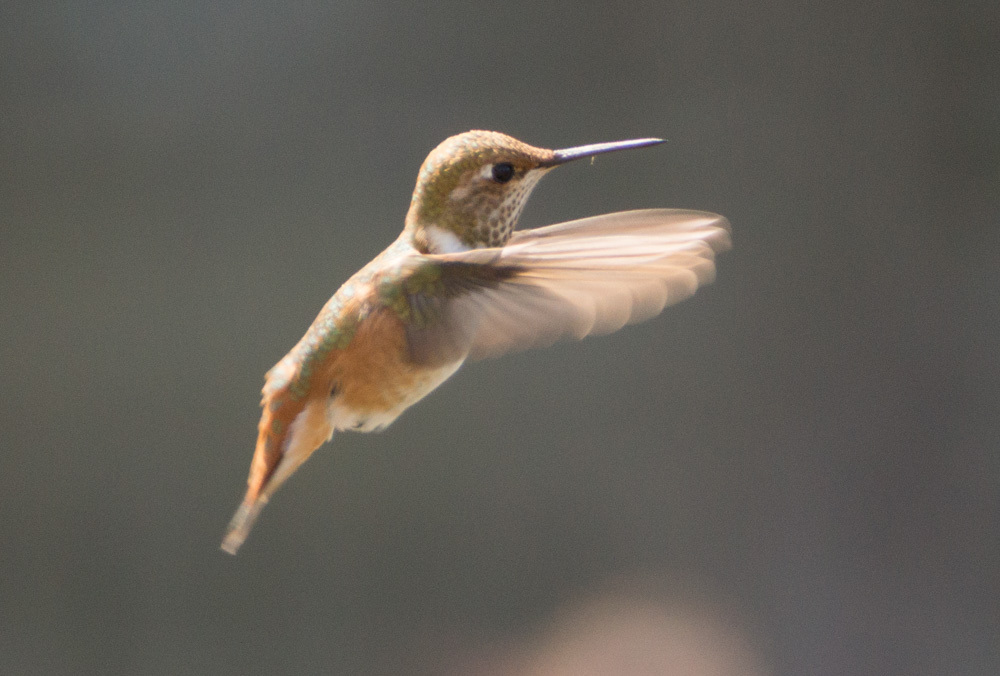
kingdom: Animalia
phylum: Chordata
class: Aves
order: Apodiformes
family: Trochilidae
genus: Selasphorus
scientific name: Selasphorus
